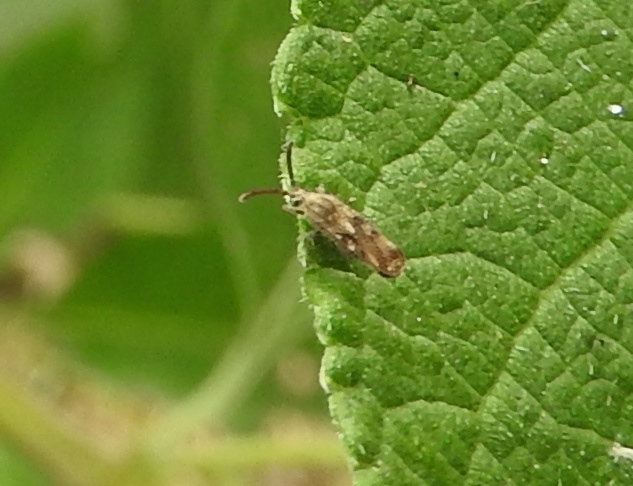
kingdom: Animalia
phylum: Arthropoda
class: Insecta
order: Hemiptera
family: Tingidae
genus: Teleonemia
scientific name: Teleonemia
